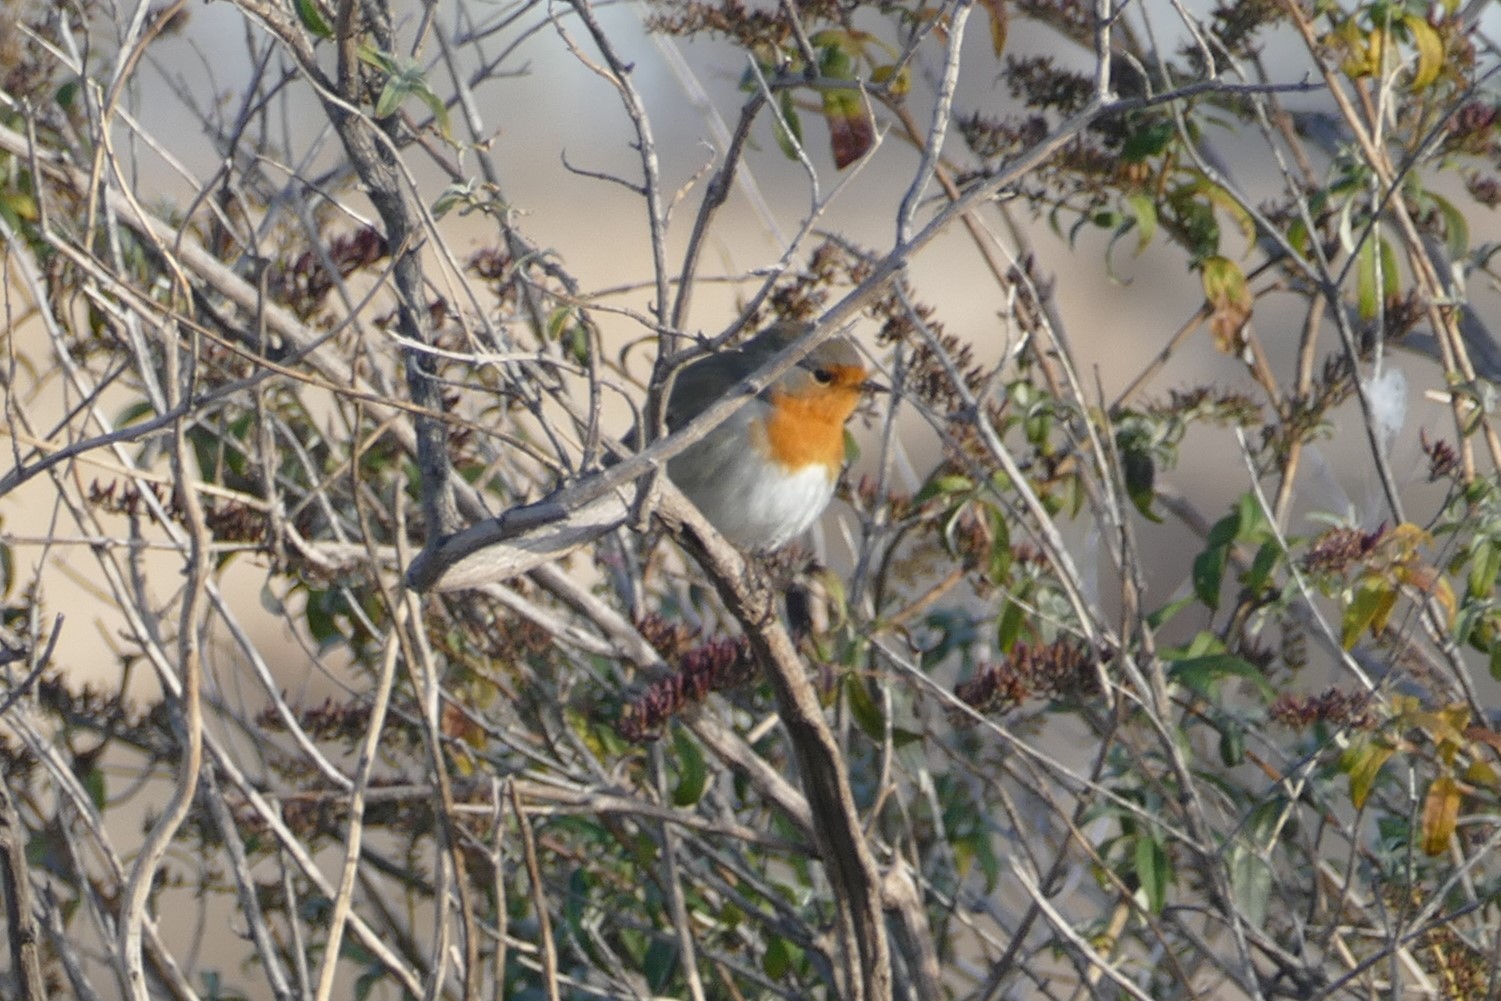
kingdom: Animalia
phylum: Chordata
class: Aves
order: Passeriformes
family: Muscicapidae
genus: Erithacus
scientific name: Erithacus rubecula
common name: European robin
